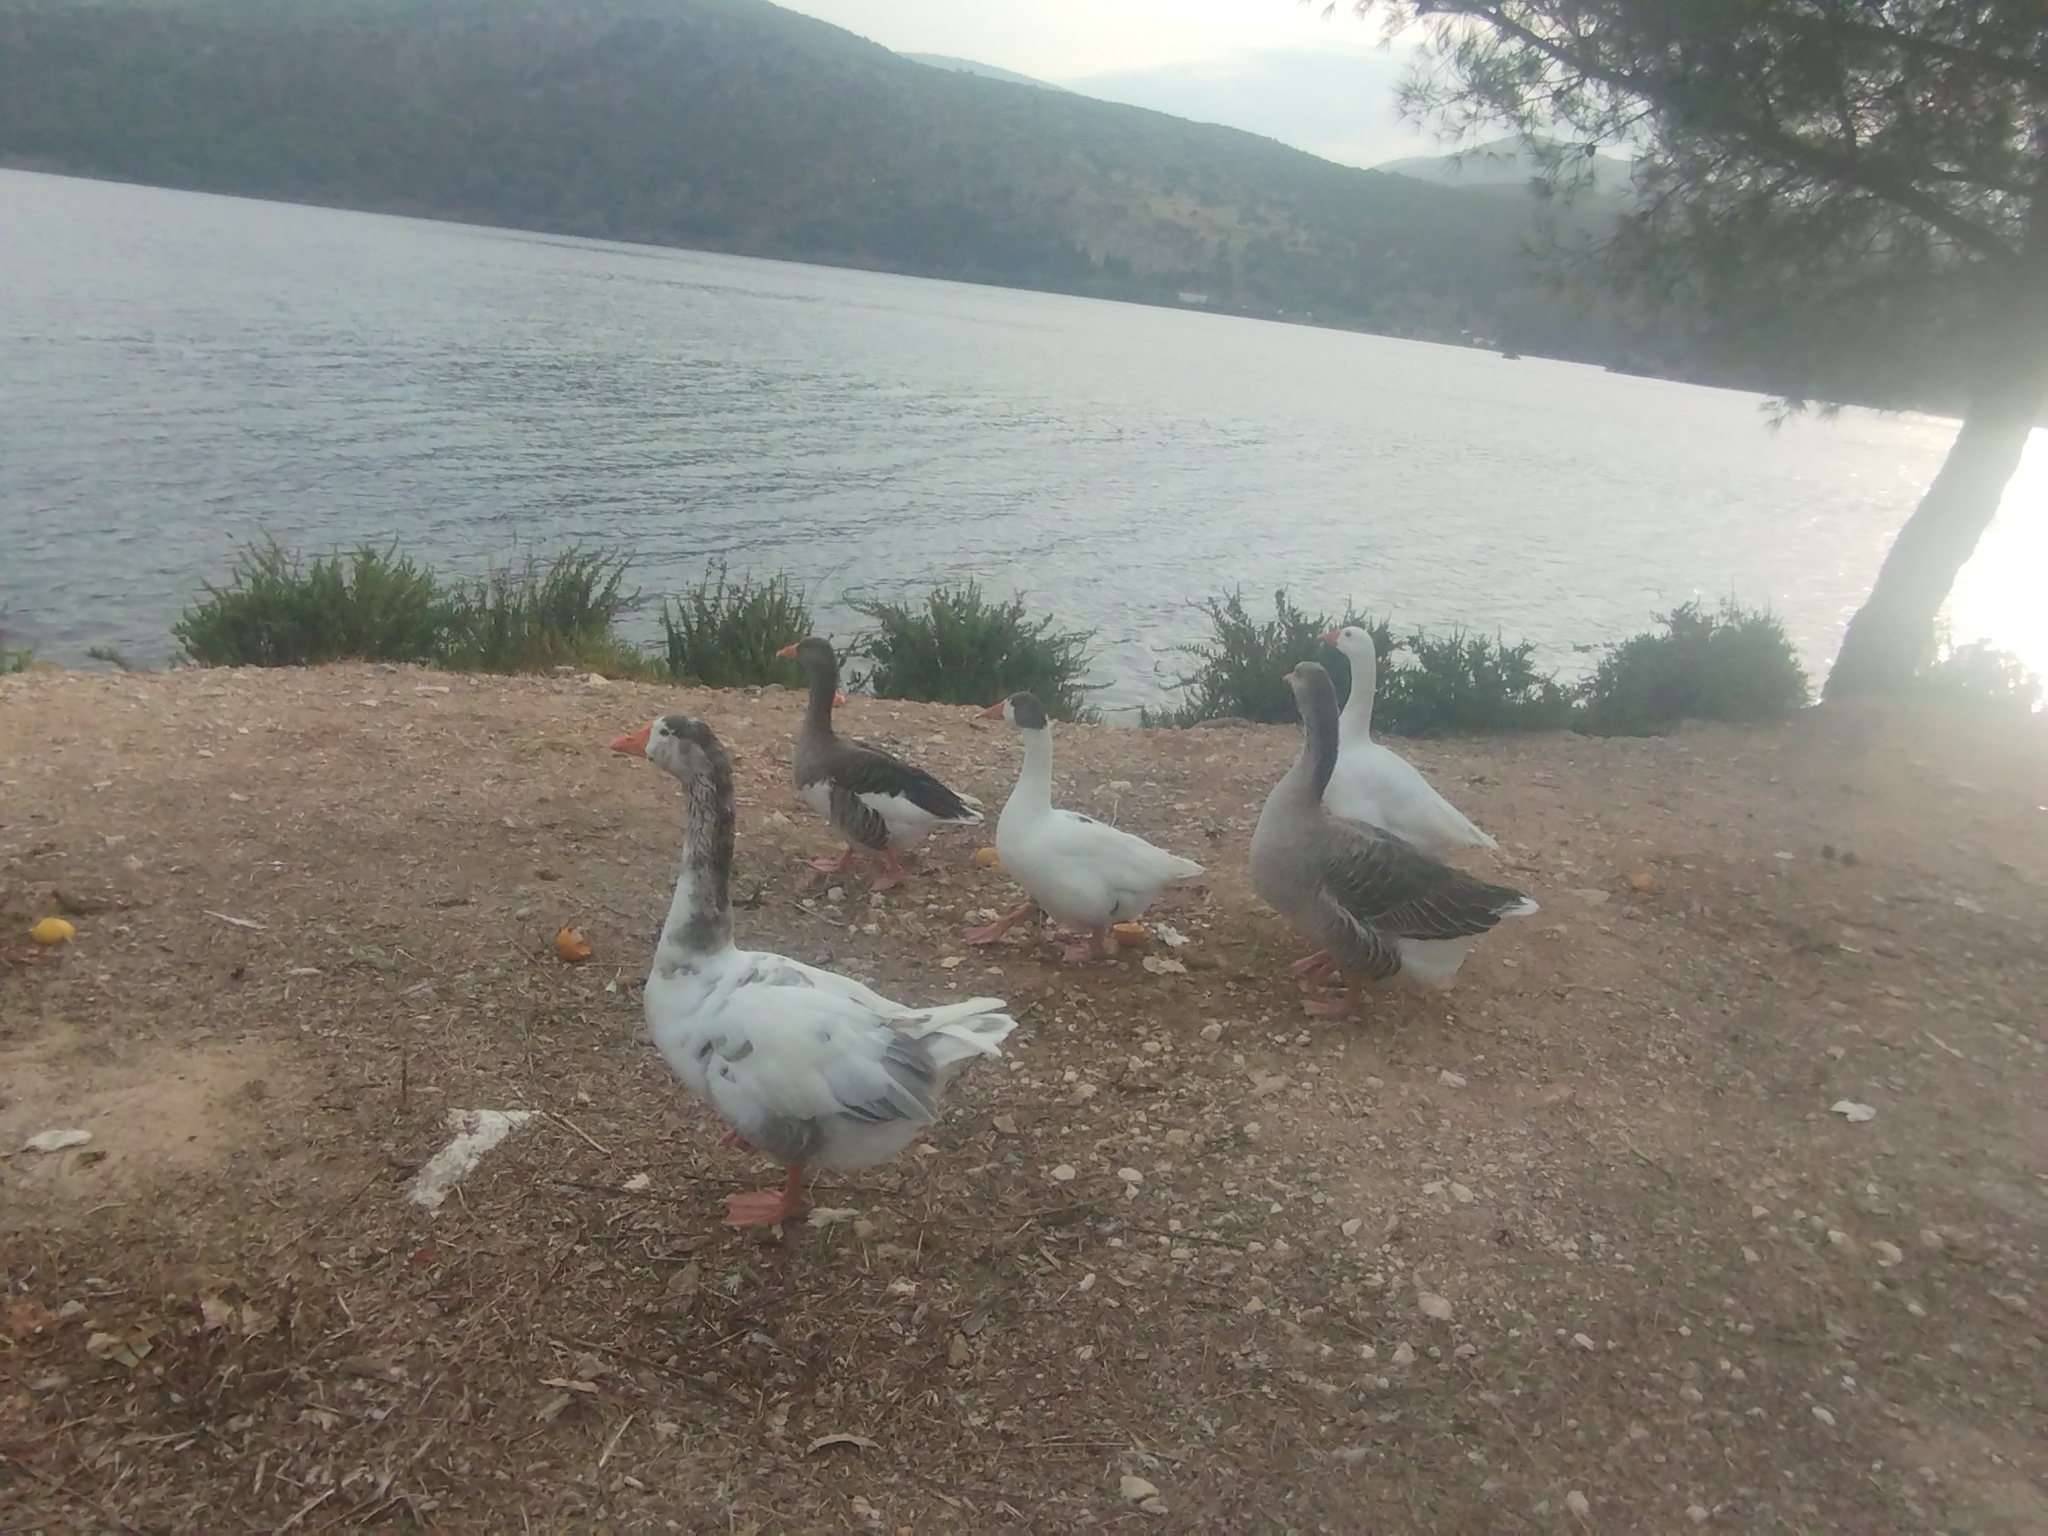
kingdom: Animalia
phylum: Chordata
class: Aves
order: Anseriformes
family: Anatidae
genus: Anser
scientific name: Anser anser
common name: Greylag goose
